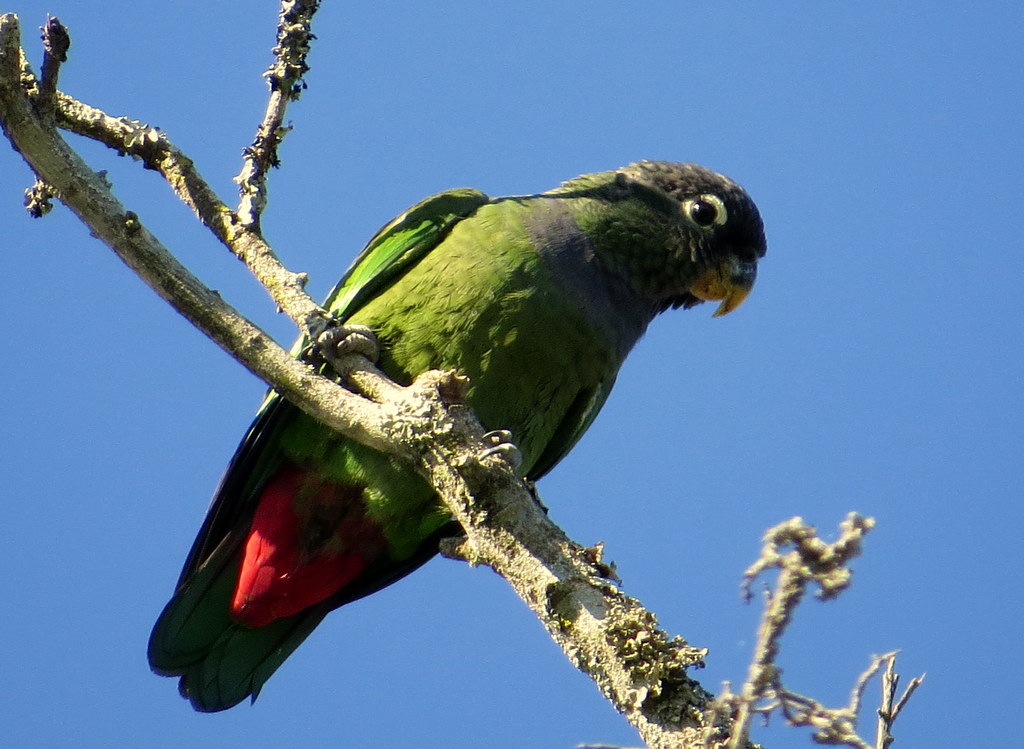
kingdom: Animalia
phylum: Chordata
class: Aves
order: Psittaciformes
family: Psittacidae
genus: Pionus
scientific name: Pionus maximiliani
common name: Scaly-headed parrot
